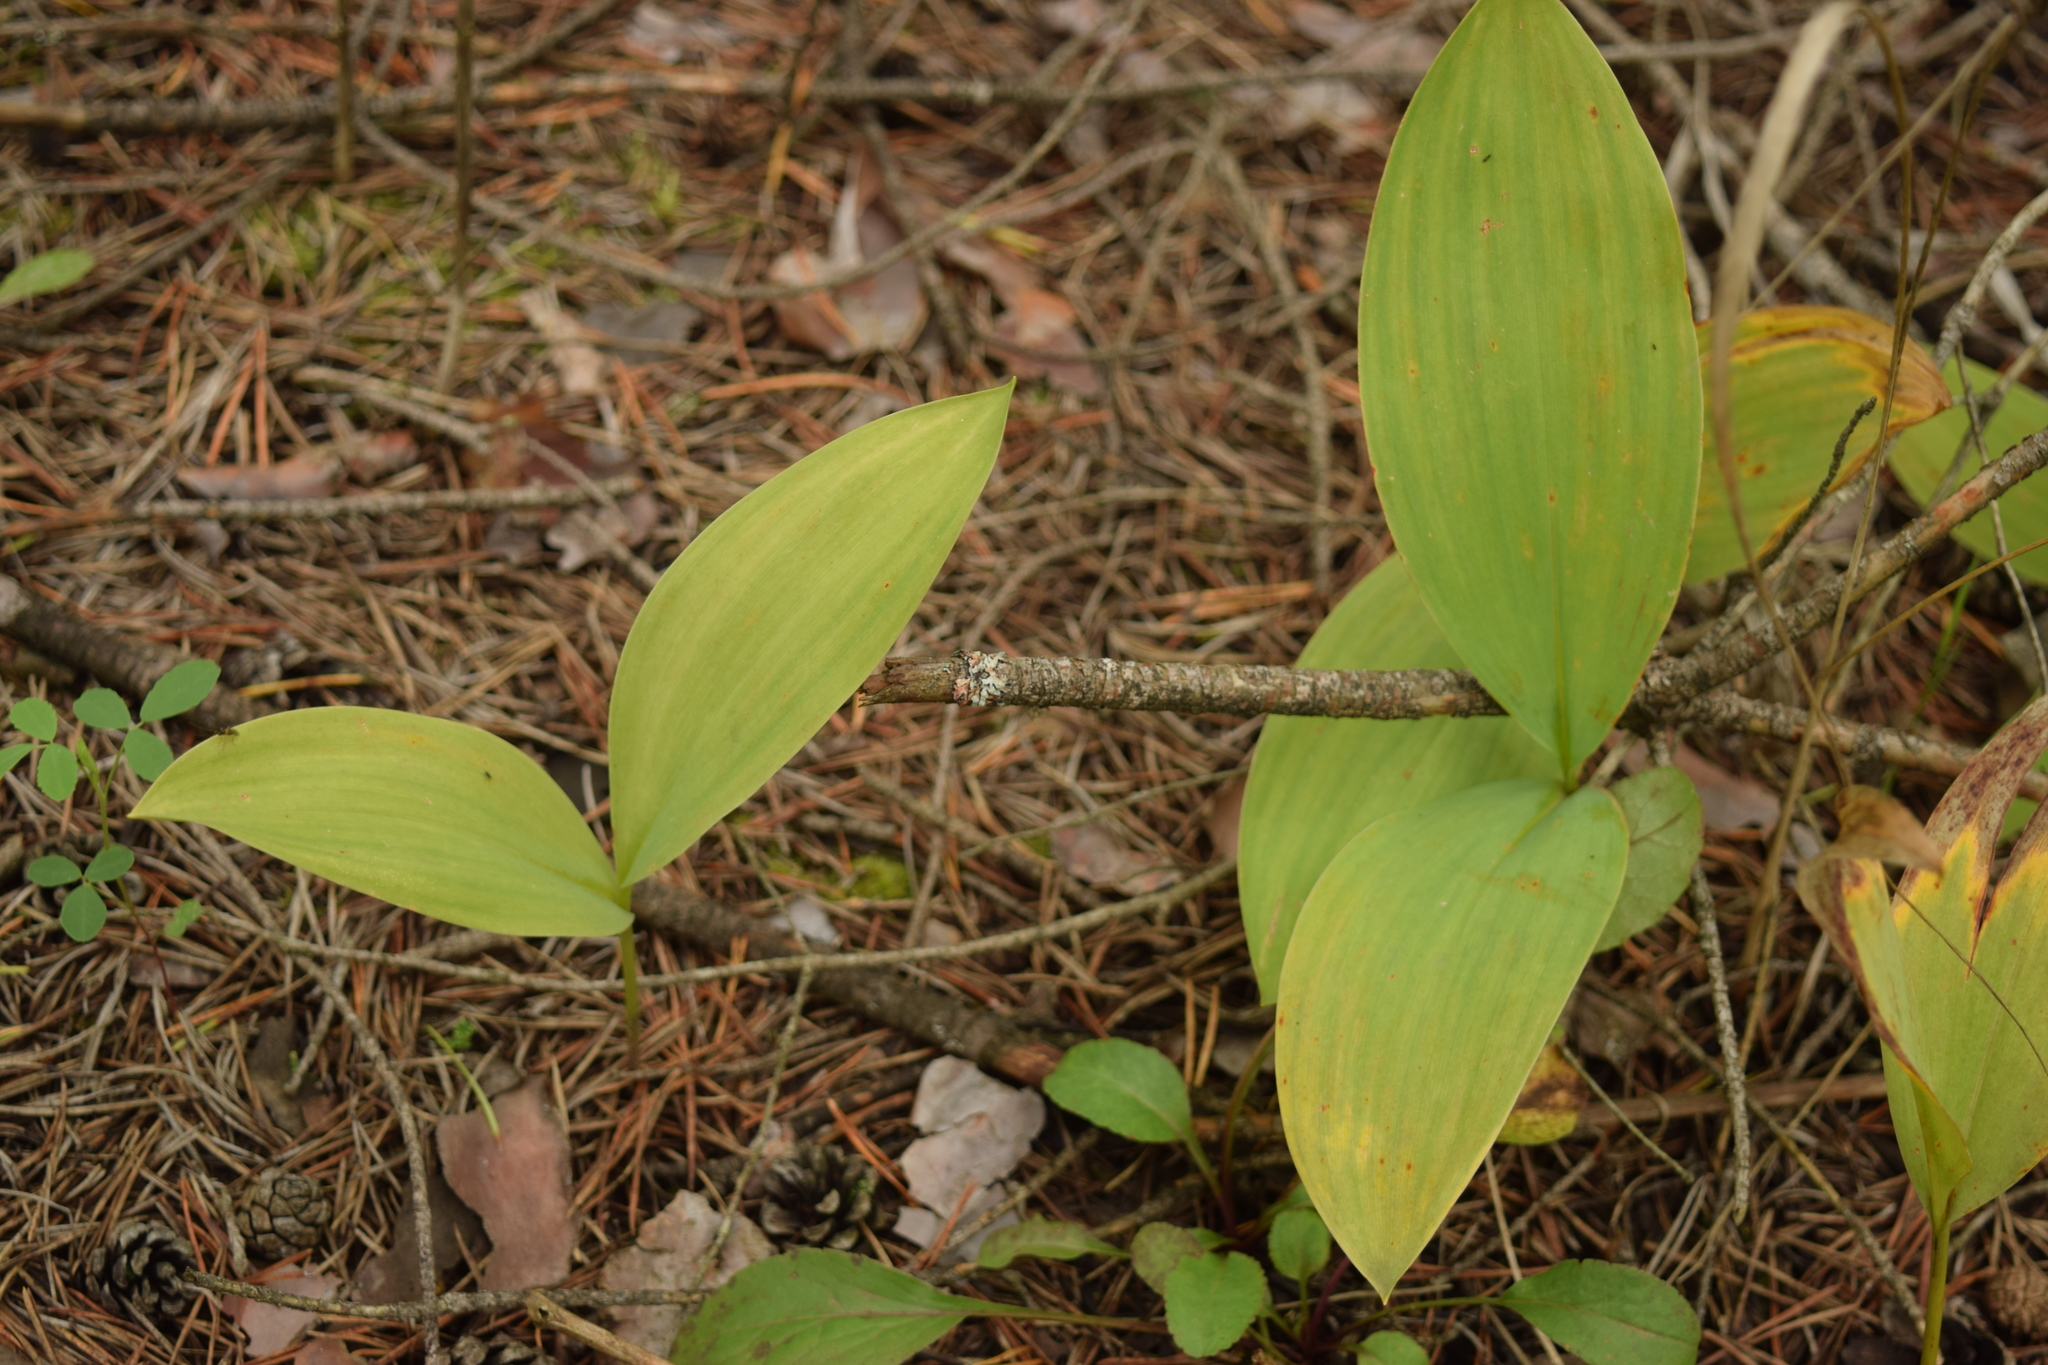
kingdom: Plantae
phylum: Tracheophyta
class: Liliopsida
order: Asparagales
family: Asparagaceae
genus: Convallaria
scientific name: Convallaria majalis
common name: Lily-of-the-valley
